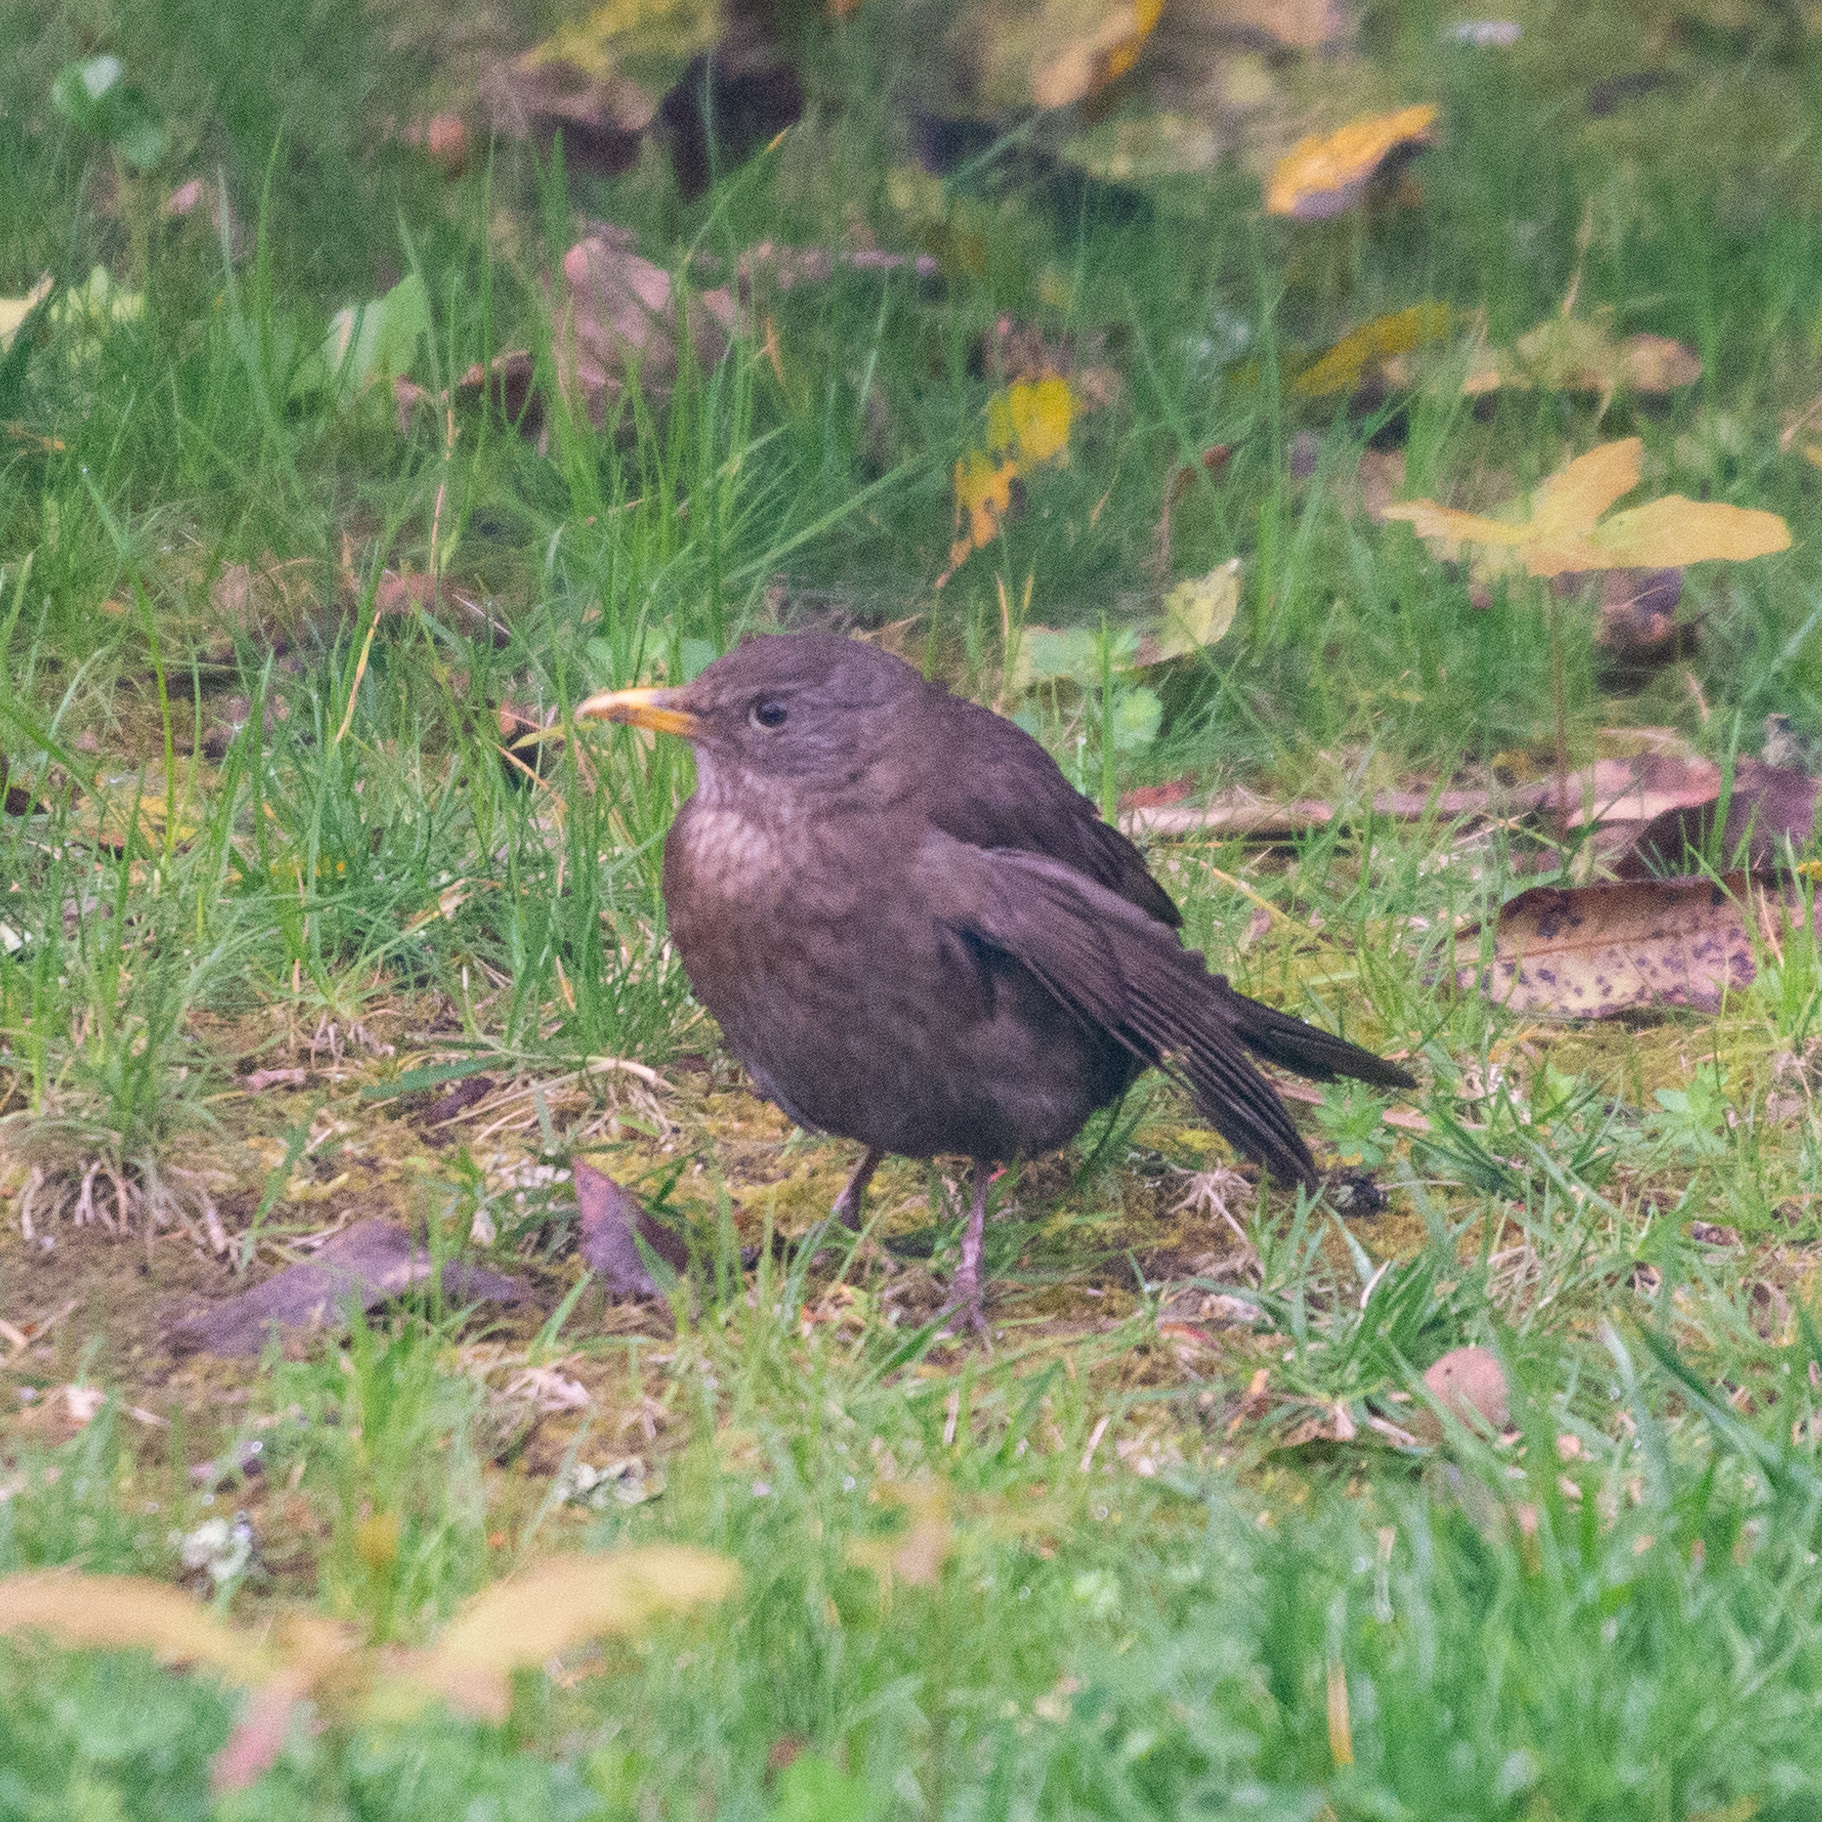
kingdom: Animalia
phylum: Chordata
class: Aves
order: Passeriformes
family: Turdidae
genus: Turdus
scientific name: Turdus merula
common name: Common blackbird
